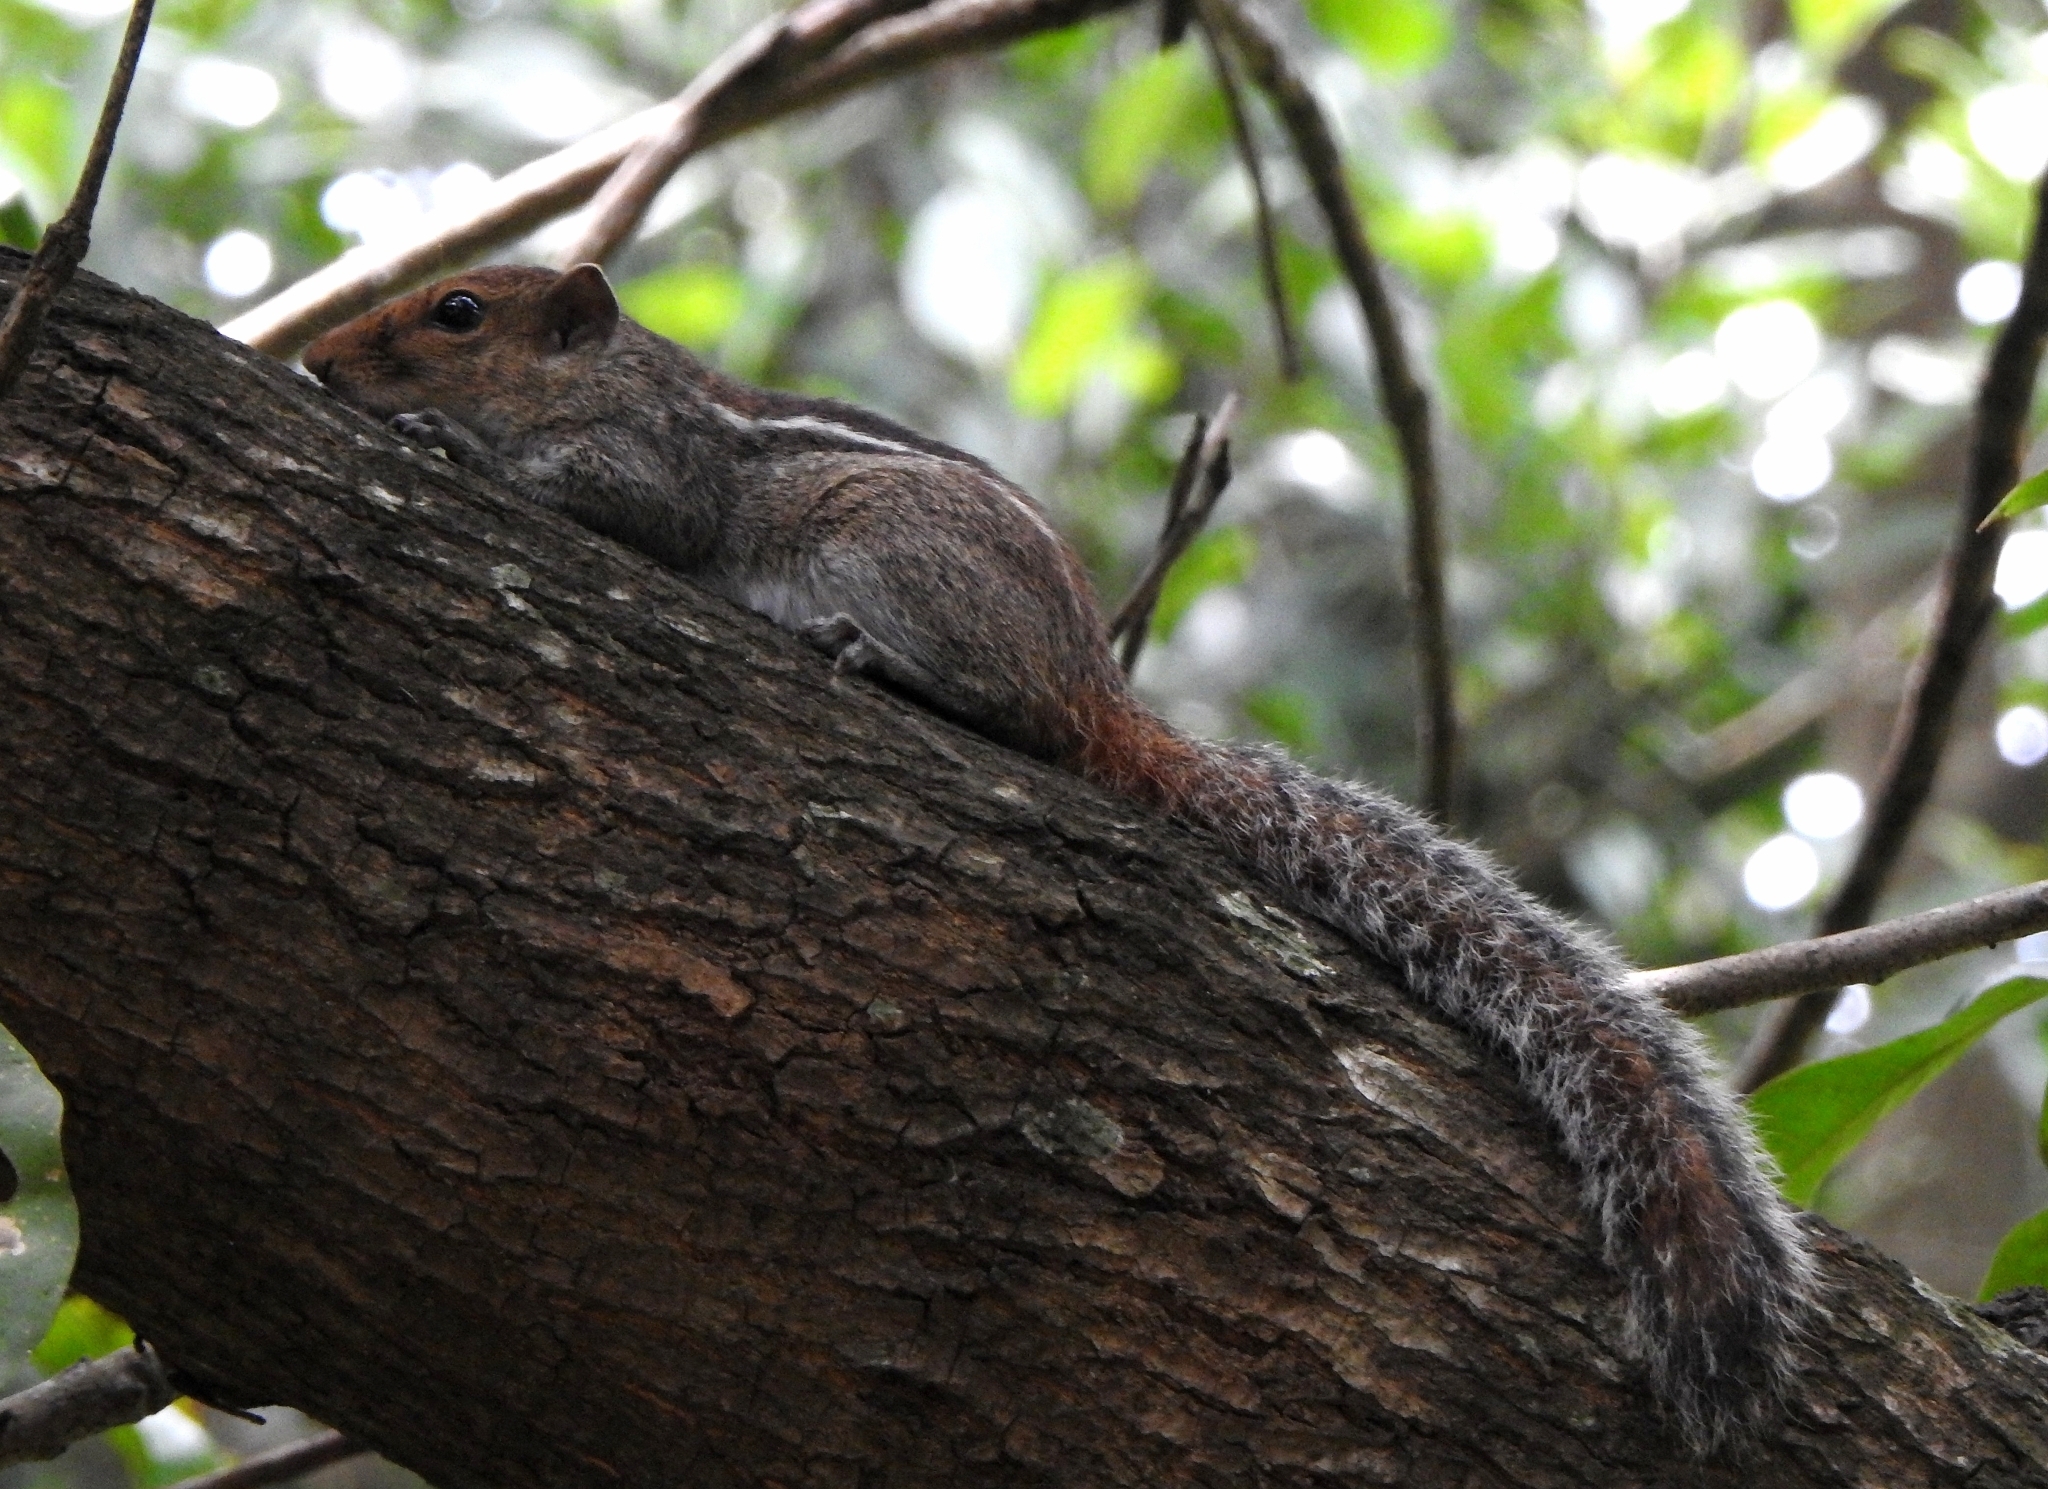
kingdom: Animalia
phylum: Chordata
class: Mammalia
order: Rodentia
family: Sciuridae
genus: Funambulus
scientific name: Funambulus tristriatus
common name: Jungle palm squirrel
